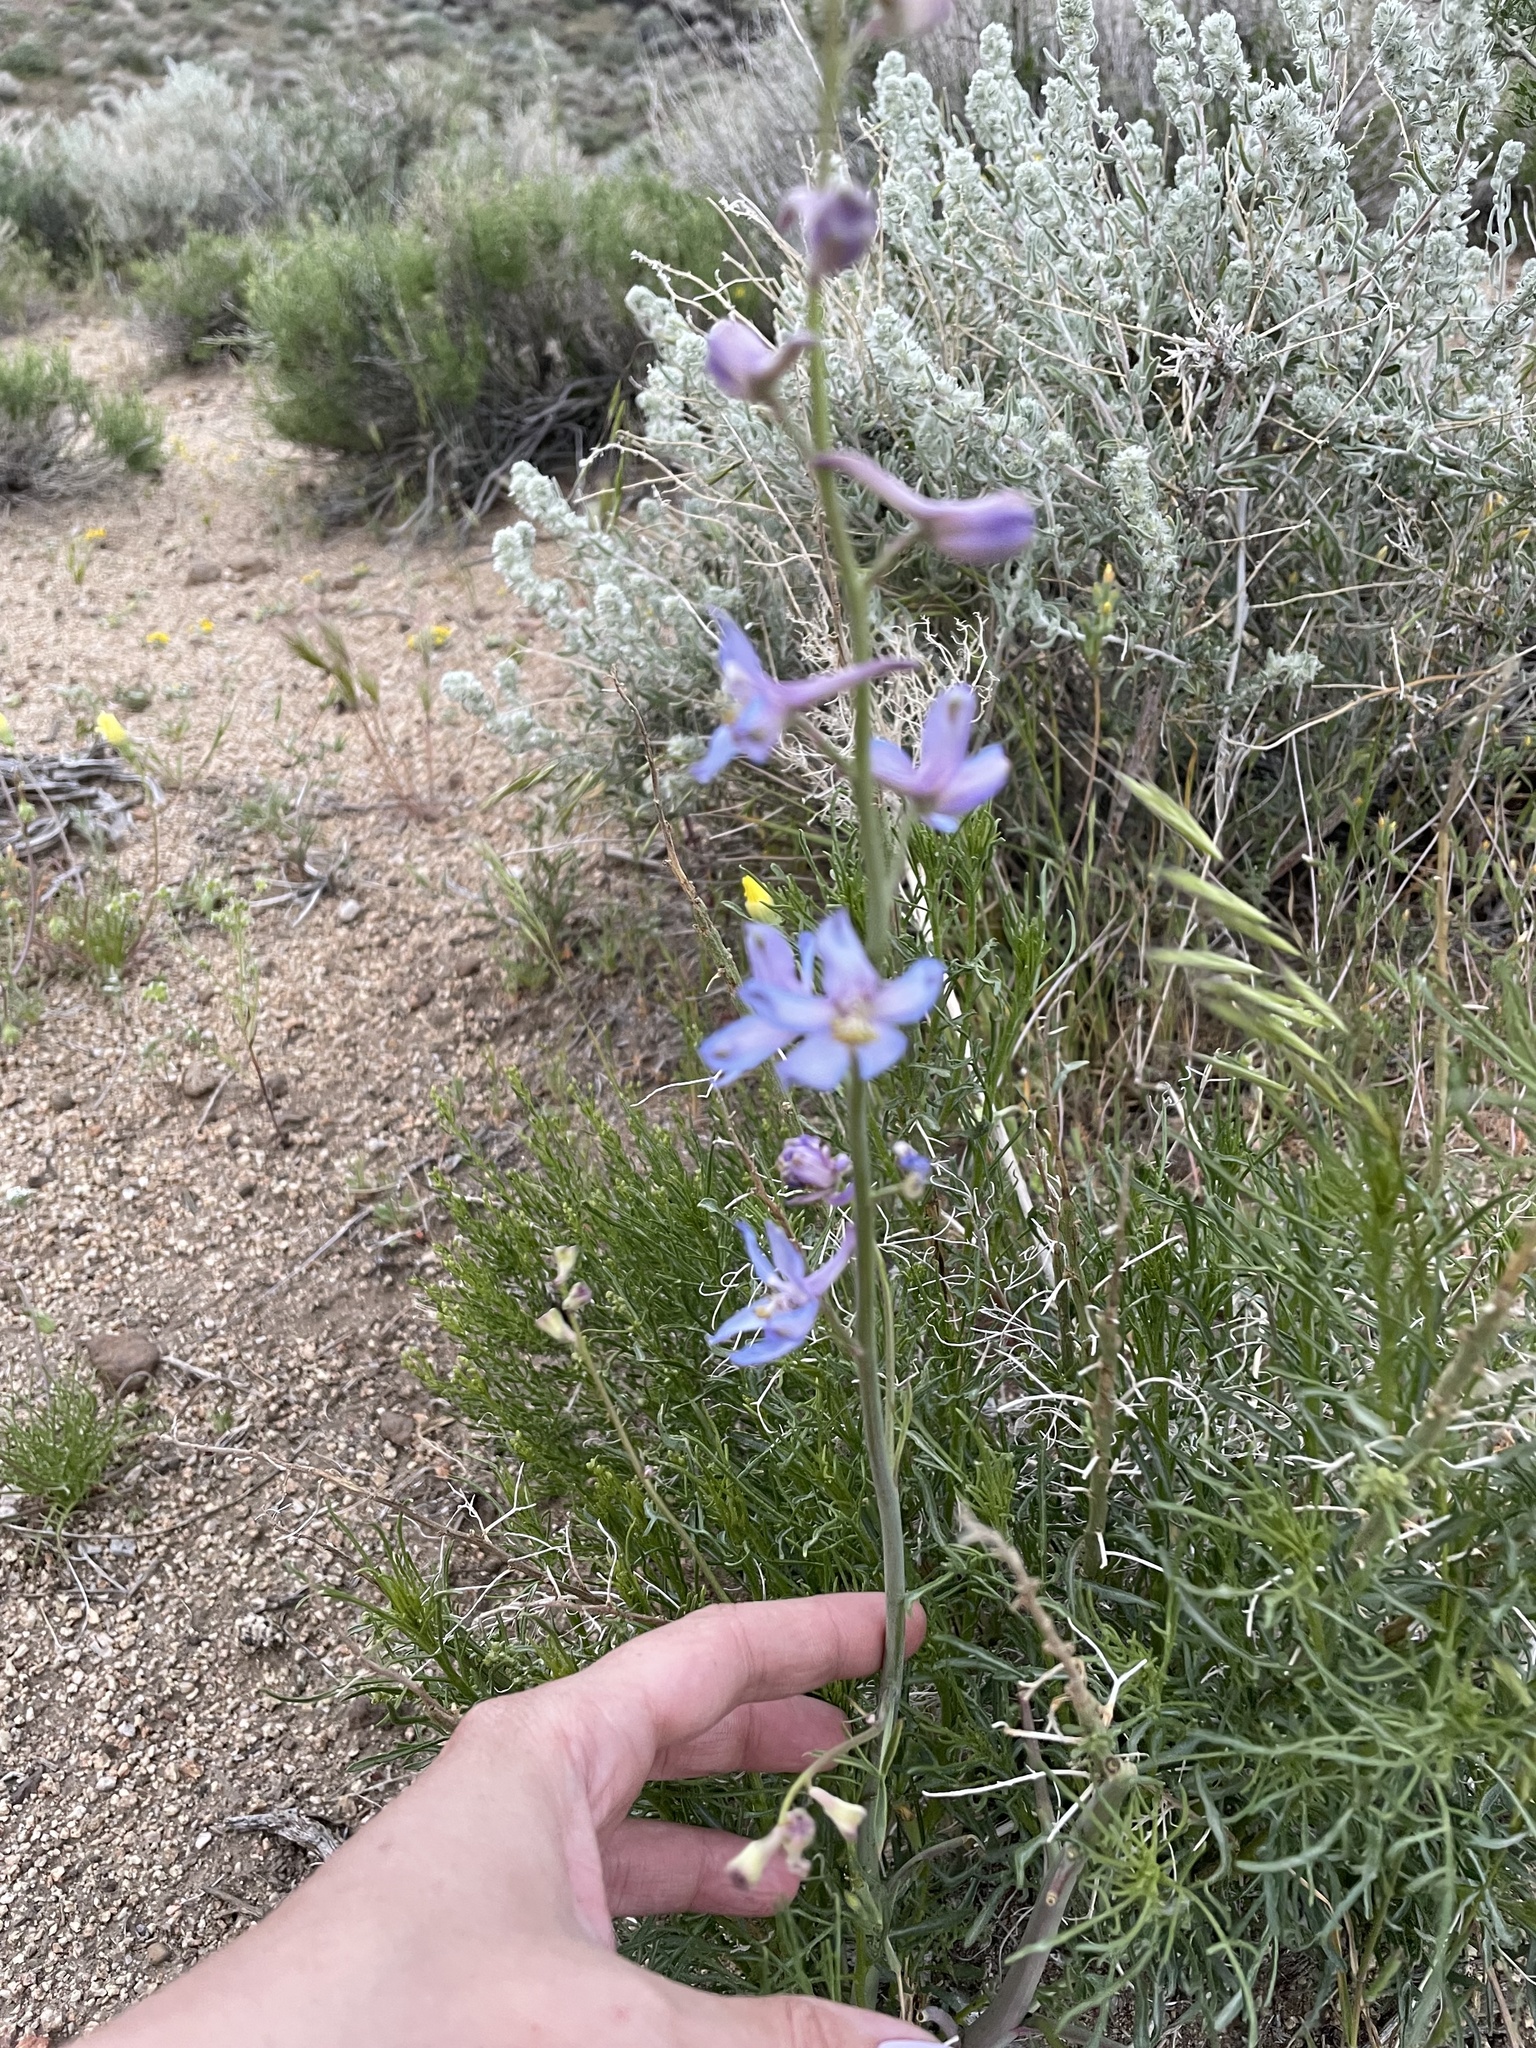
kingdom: Plantae
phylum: Tracheophyta
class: Magnoliopsida
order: Ranunculales
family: Ranunculaceae
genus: Delphinium
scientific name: Delphinium parishii
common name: Apache larkspur
